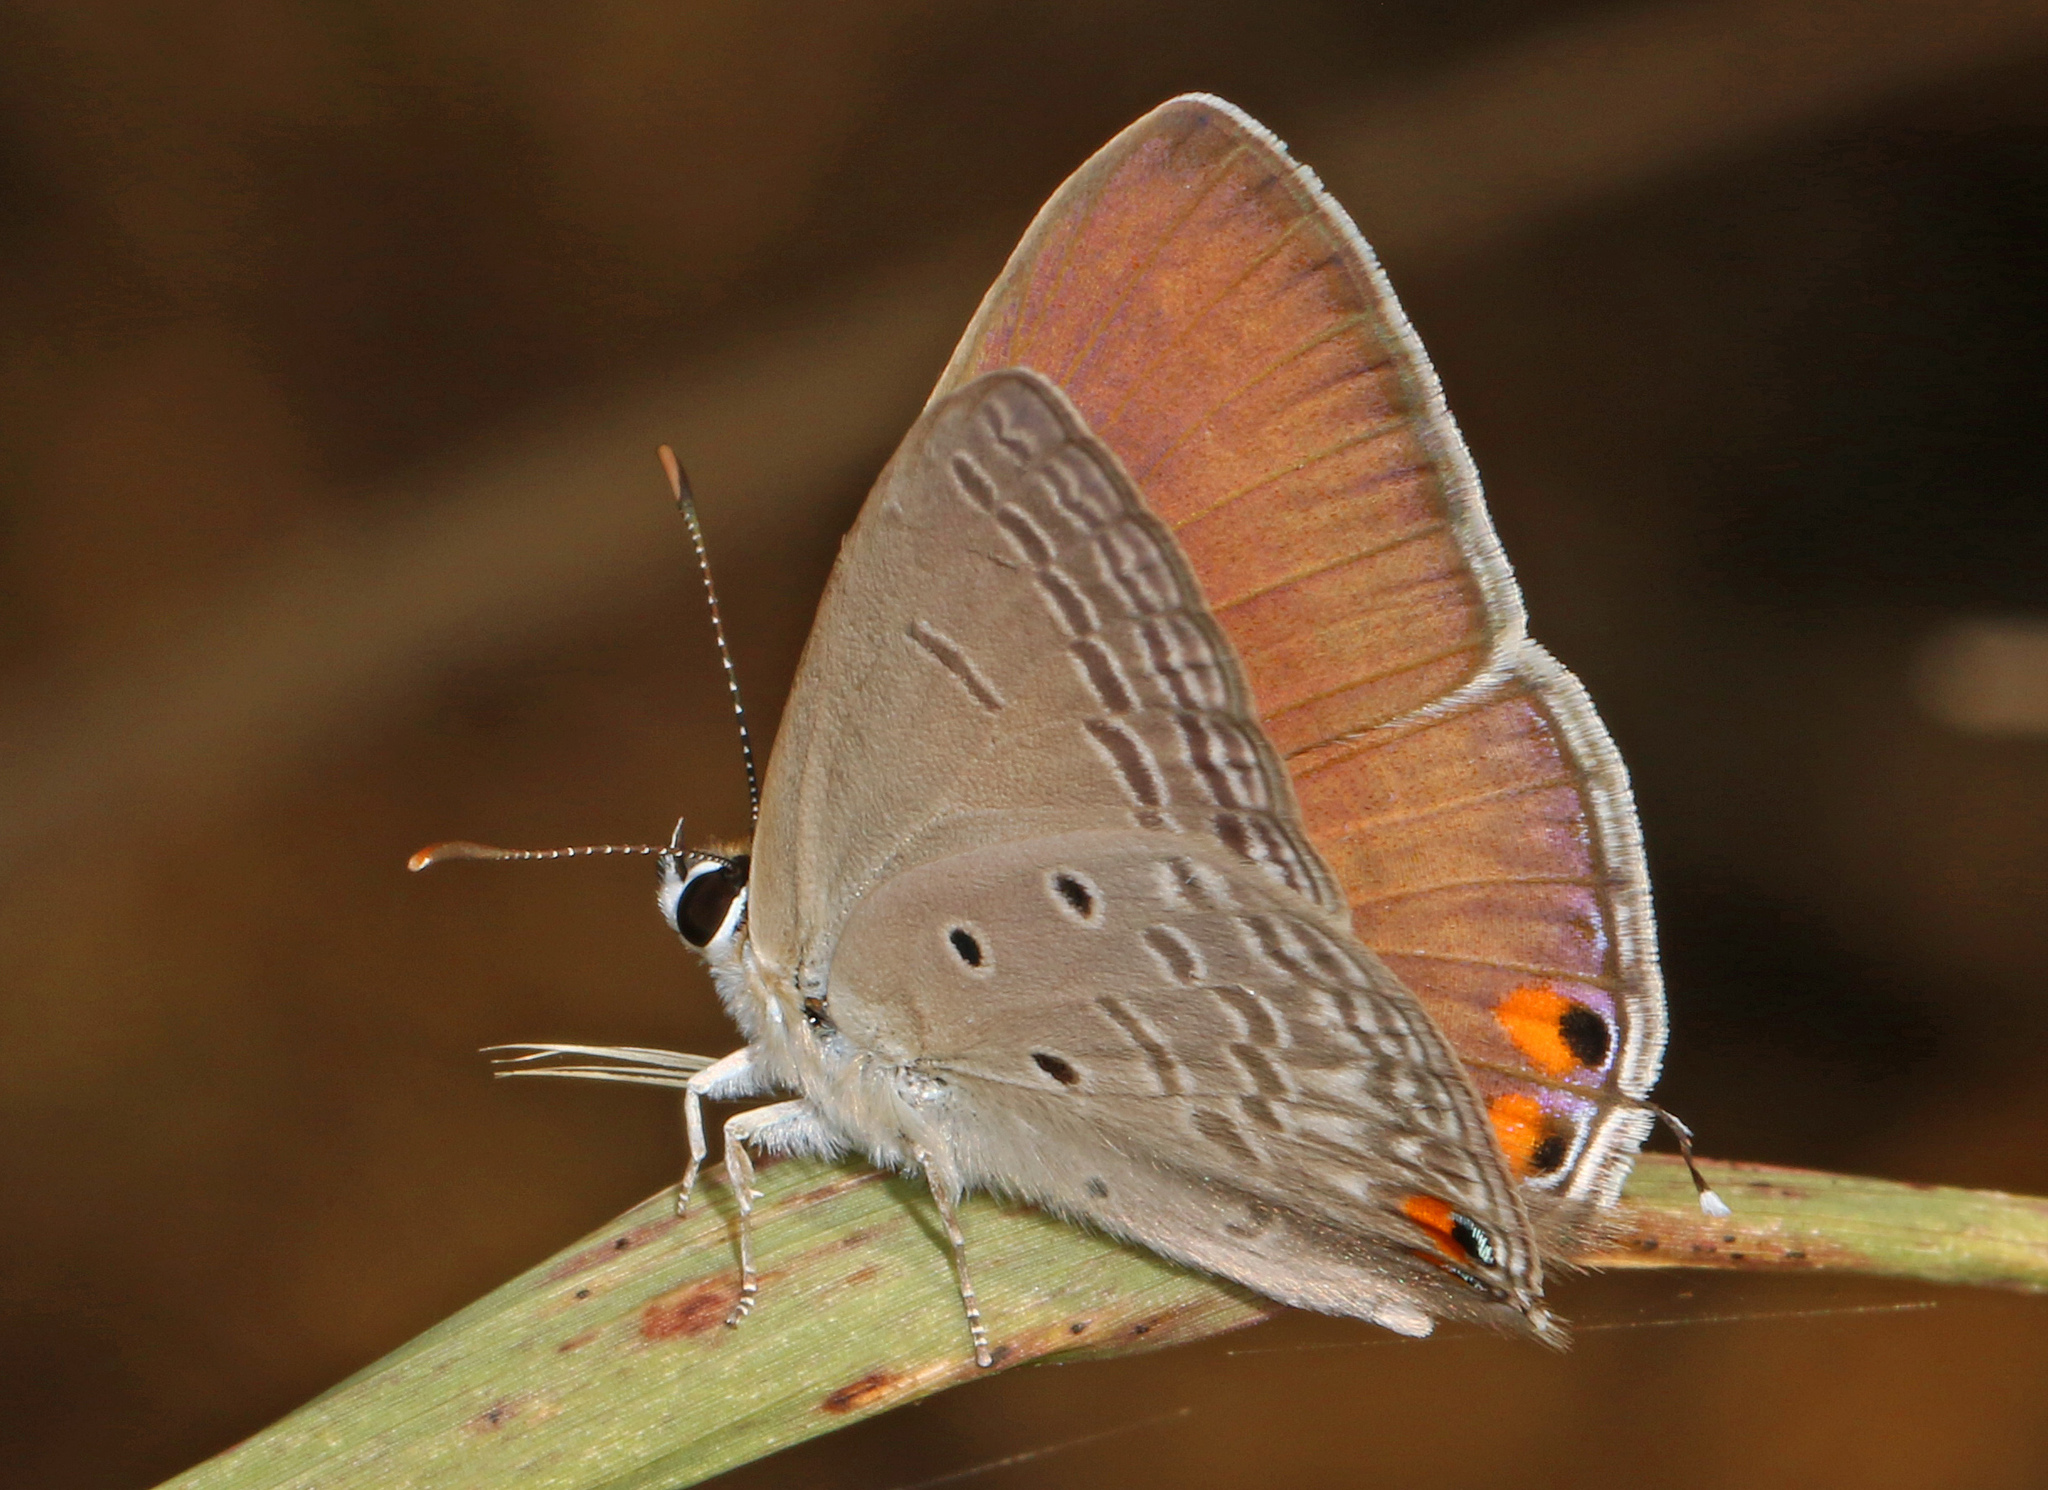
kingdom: Animalia
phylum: Arthropoda
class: Insecta
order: Lepidoptera
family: Lycaenidae
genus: Euchrysops
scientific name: Euchrysops osiris
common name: African blue
